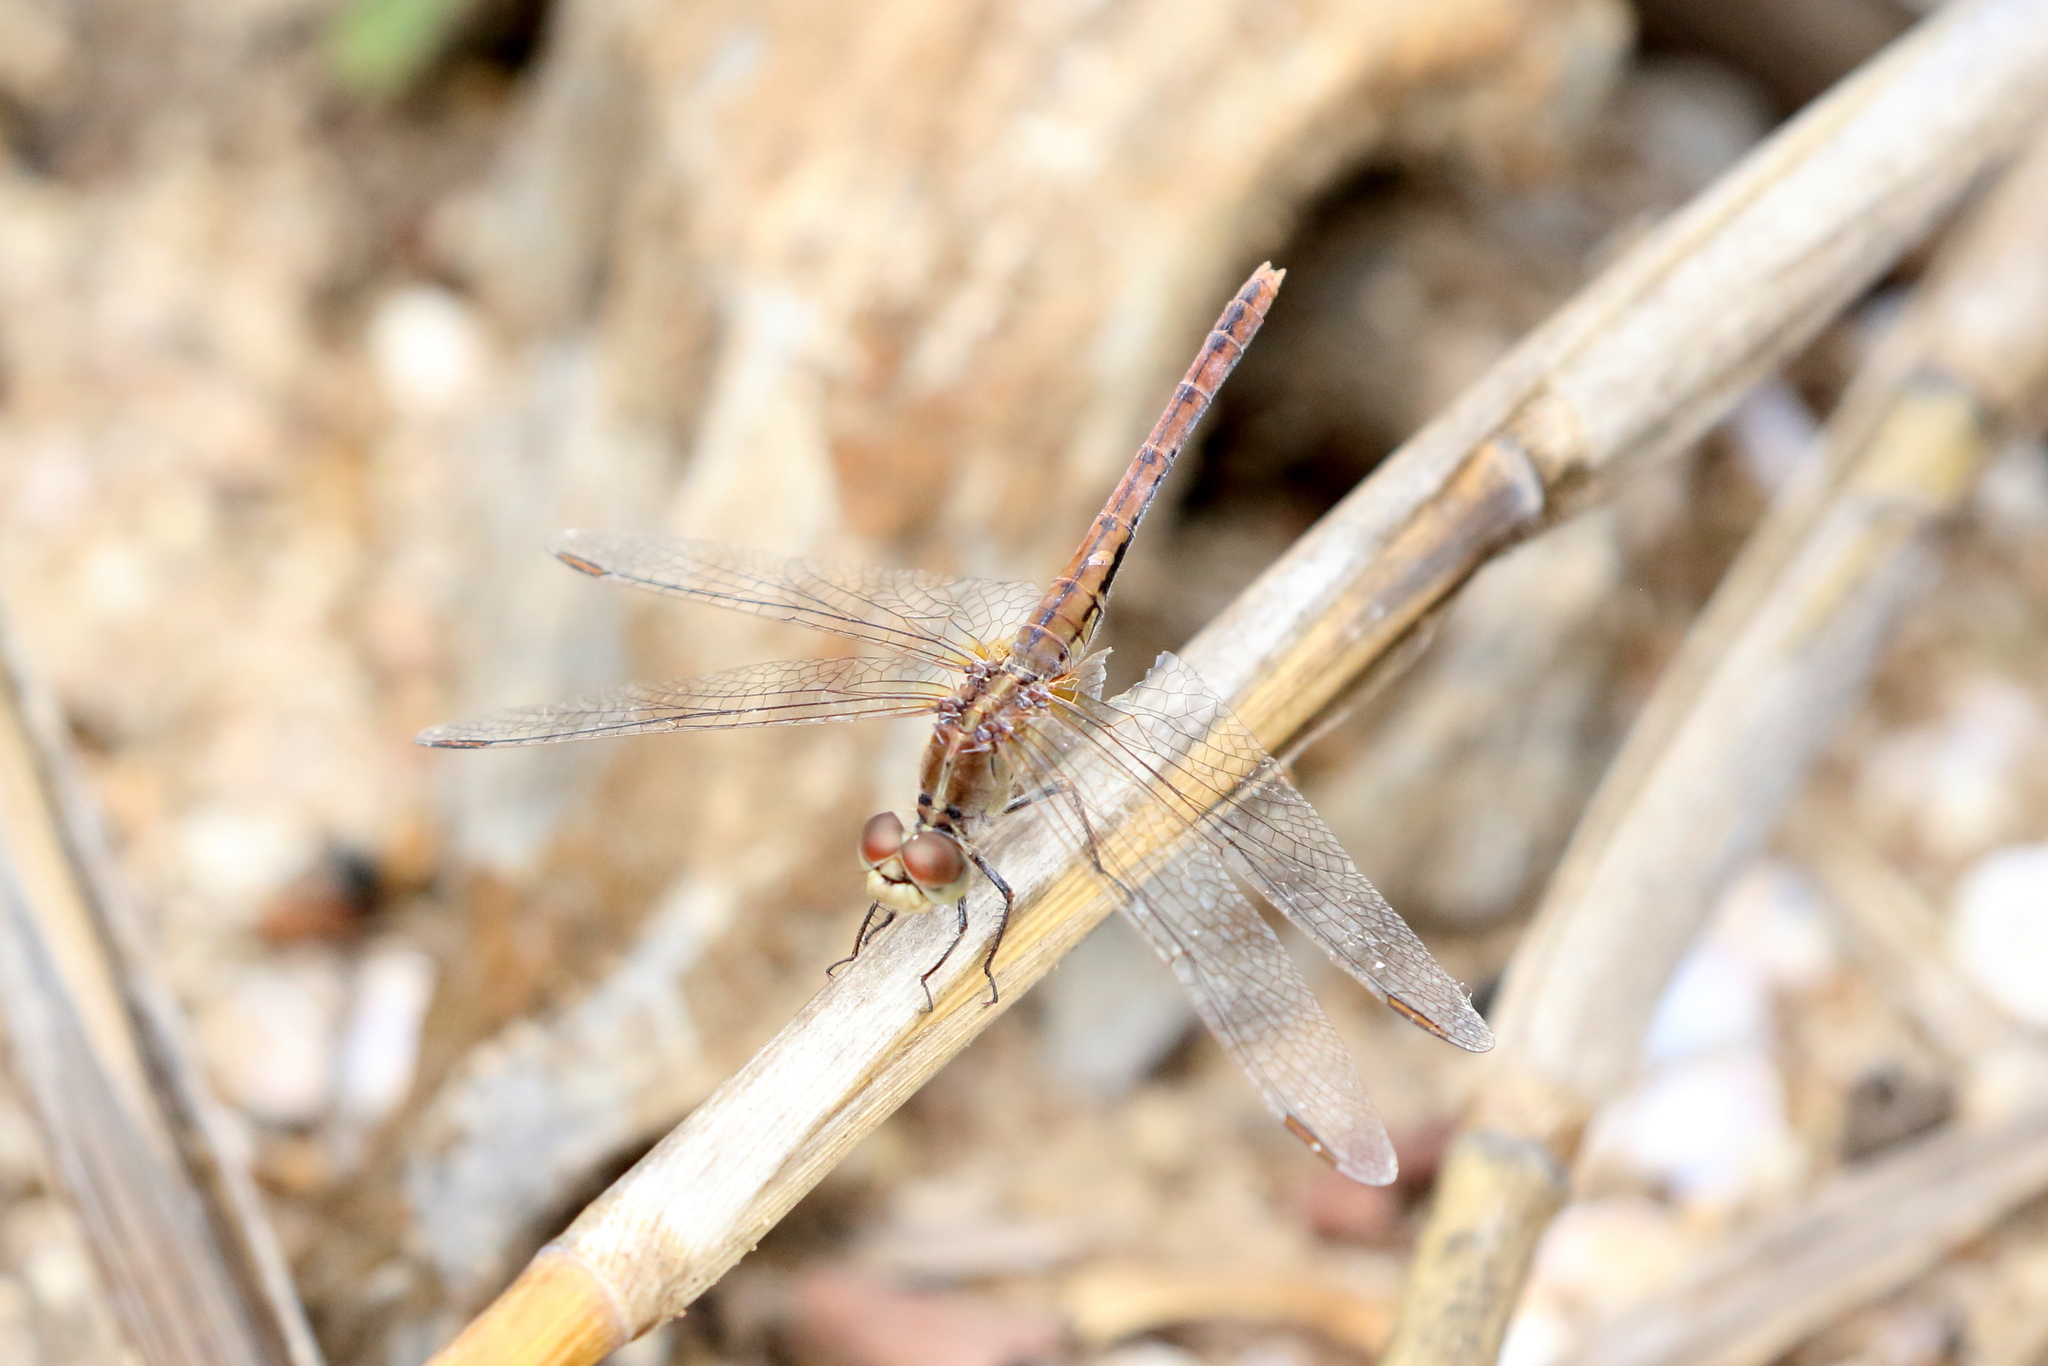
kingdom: Animalia
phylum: Arthropoda
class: Insecta
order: Odonata
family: Libellulidae
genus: Diplacodes
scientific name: Diplacodes bipunctata
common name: Red percher dragonfly
